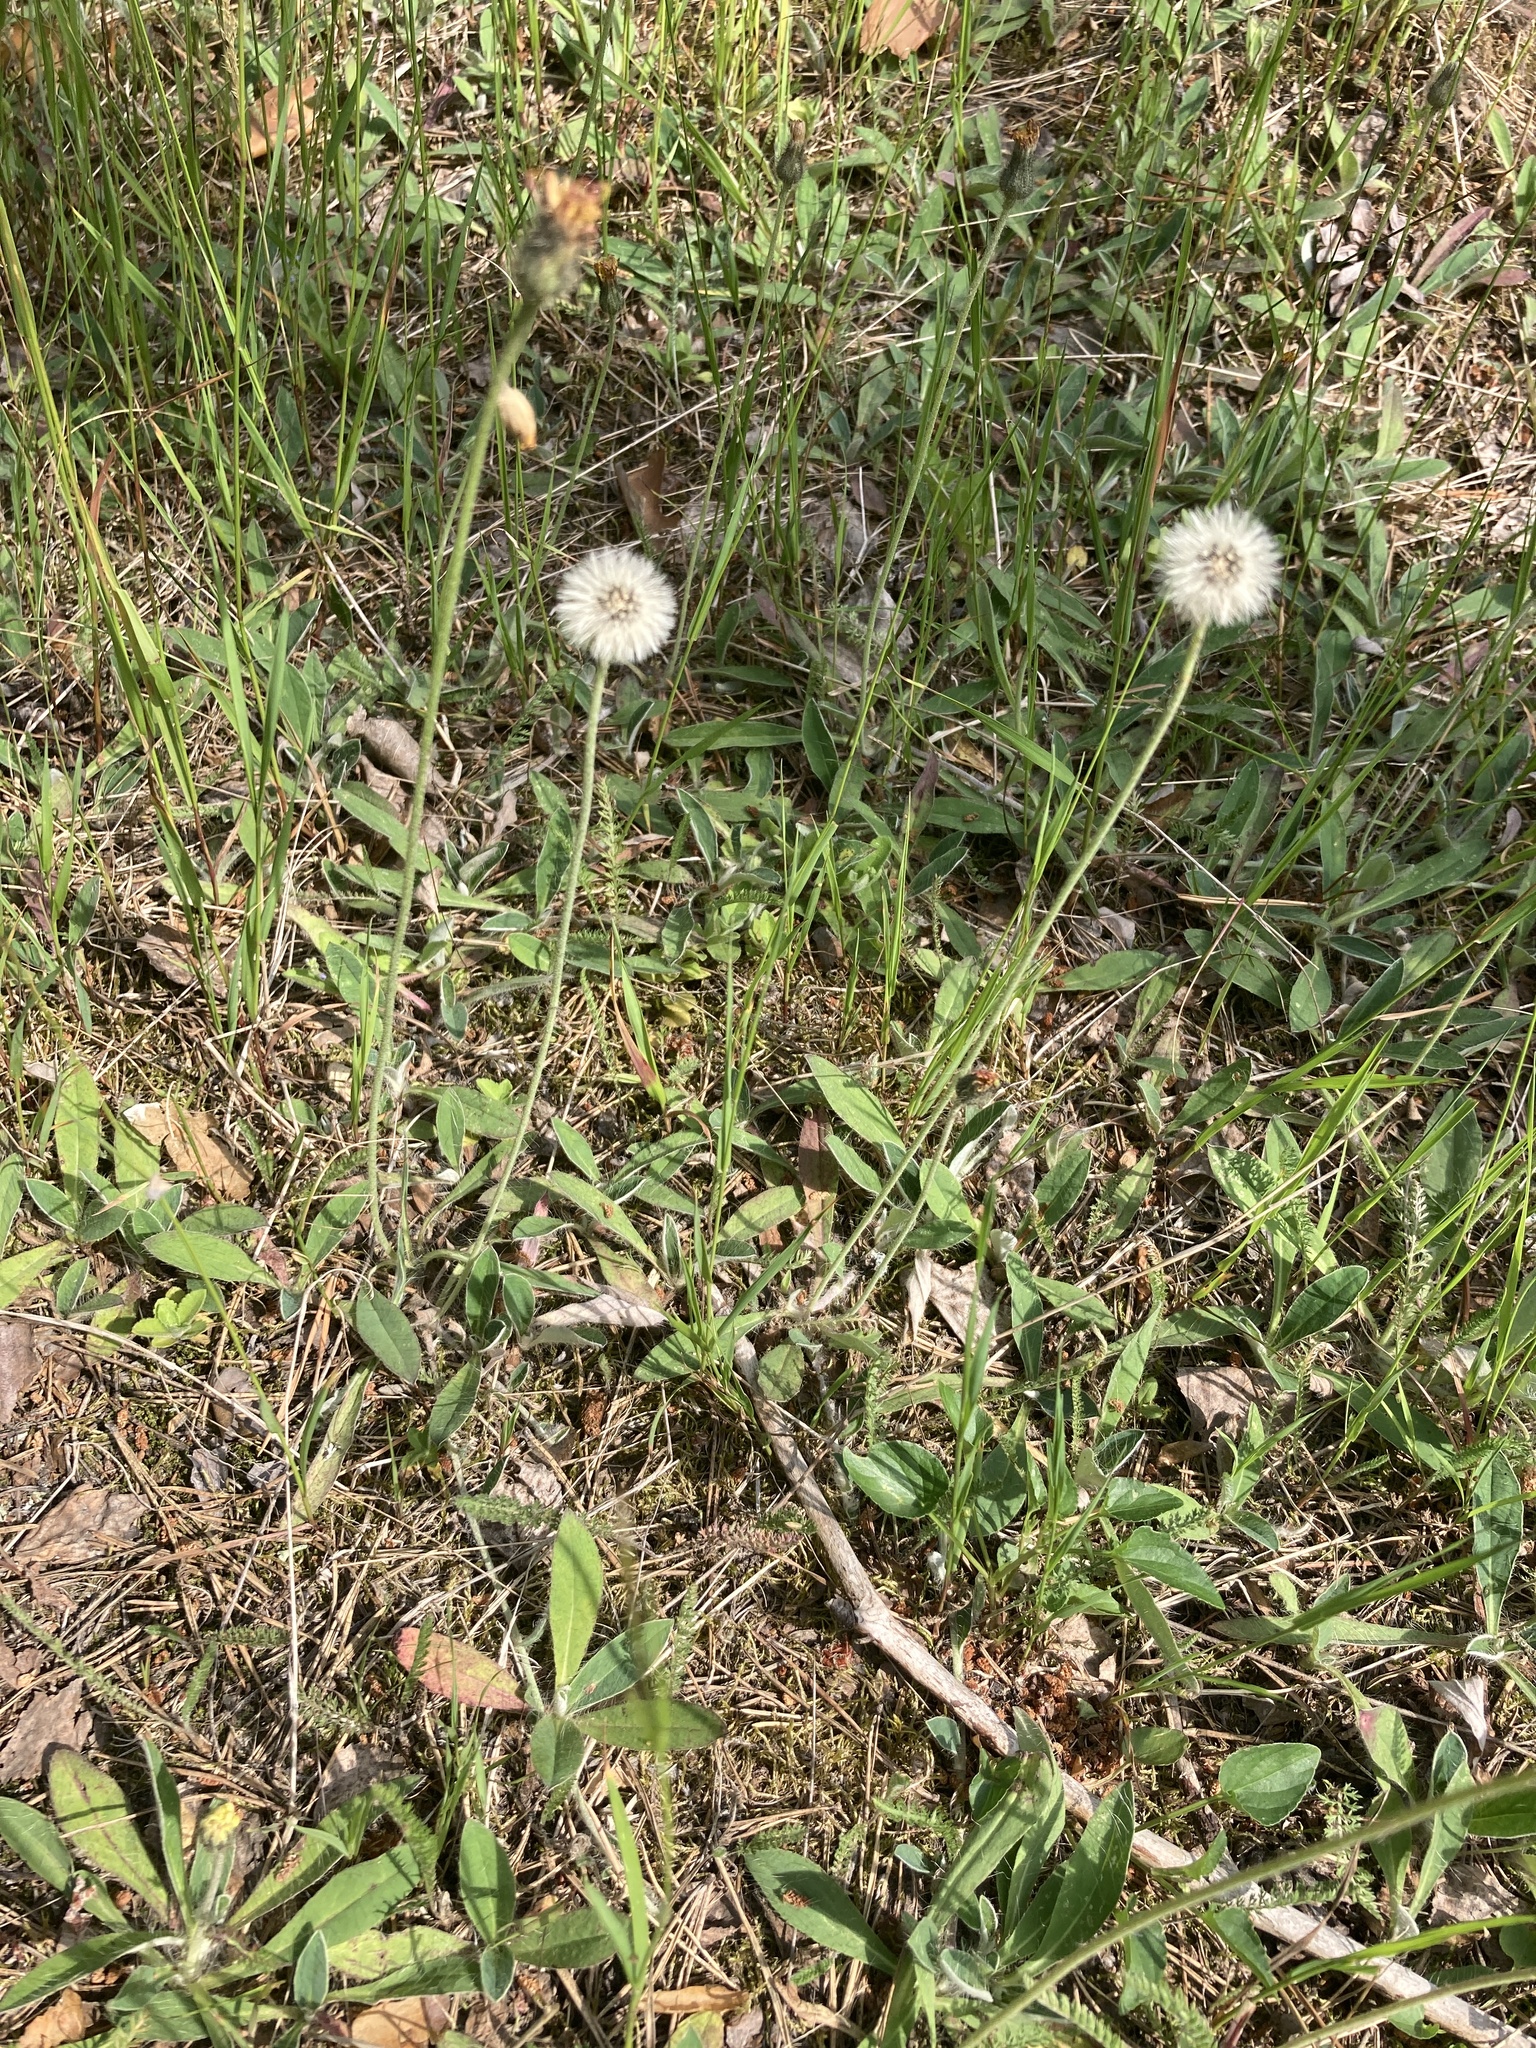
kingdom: Plantae
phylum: Tracheophyta
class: Magnoliopsida
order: Asterales
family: Asteraceae
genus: Pilosella
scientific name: Pilosella officinarum
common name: Mouse-ear hawkweed
